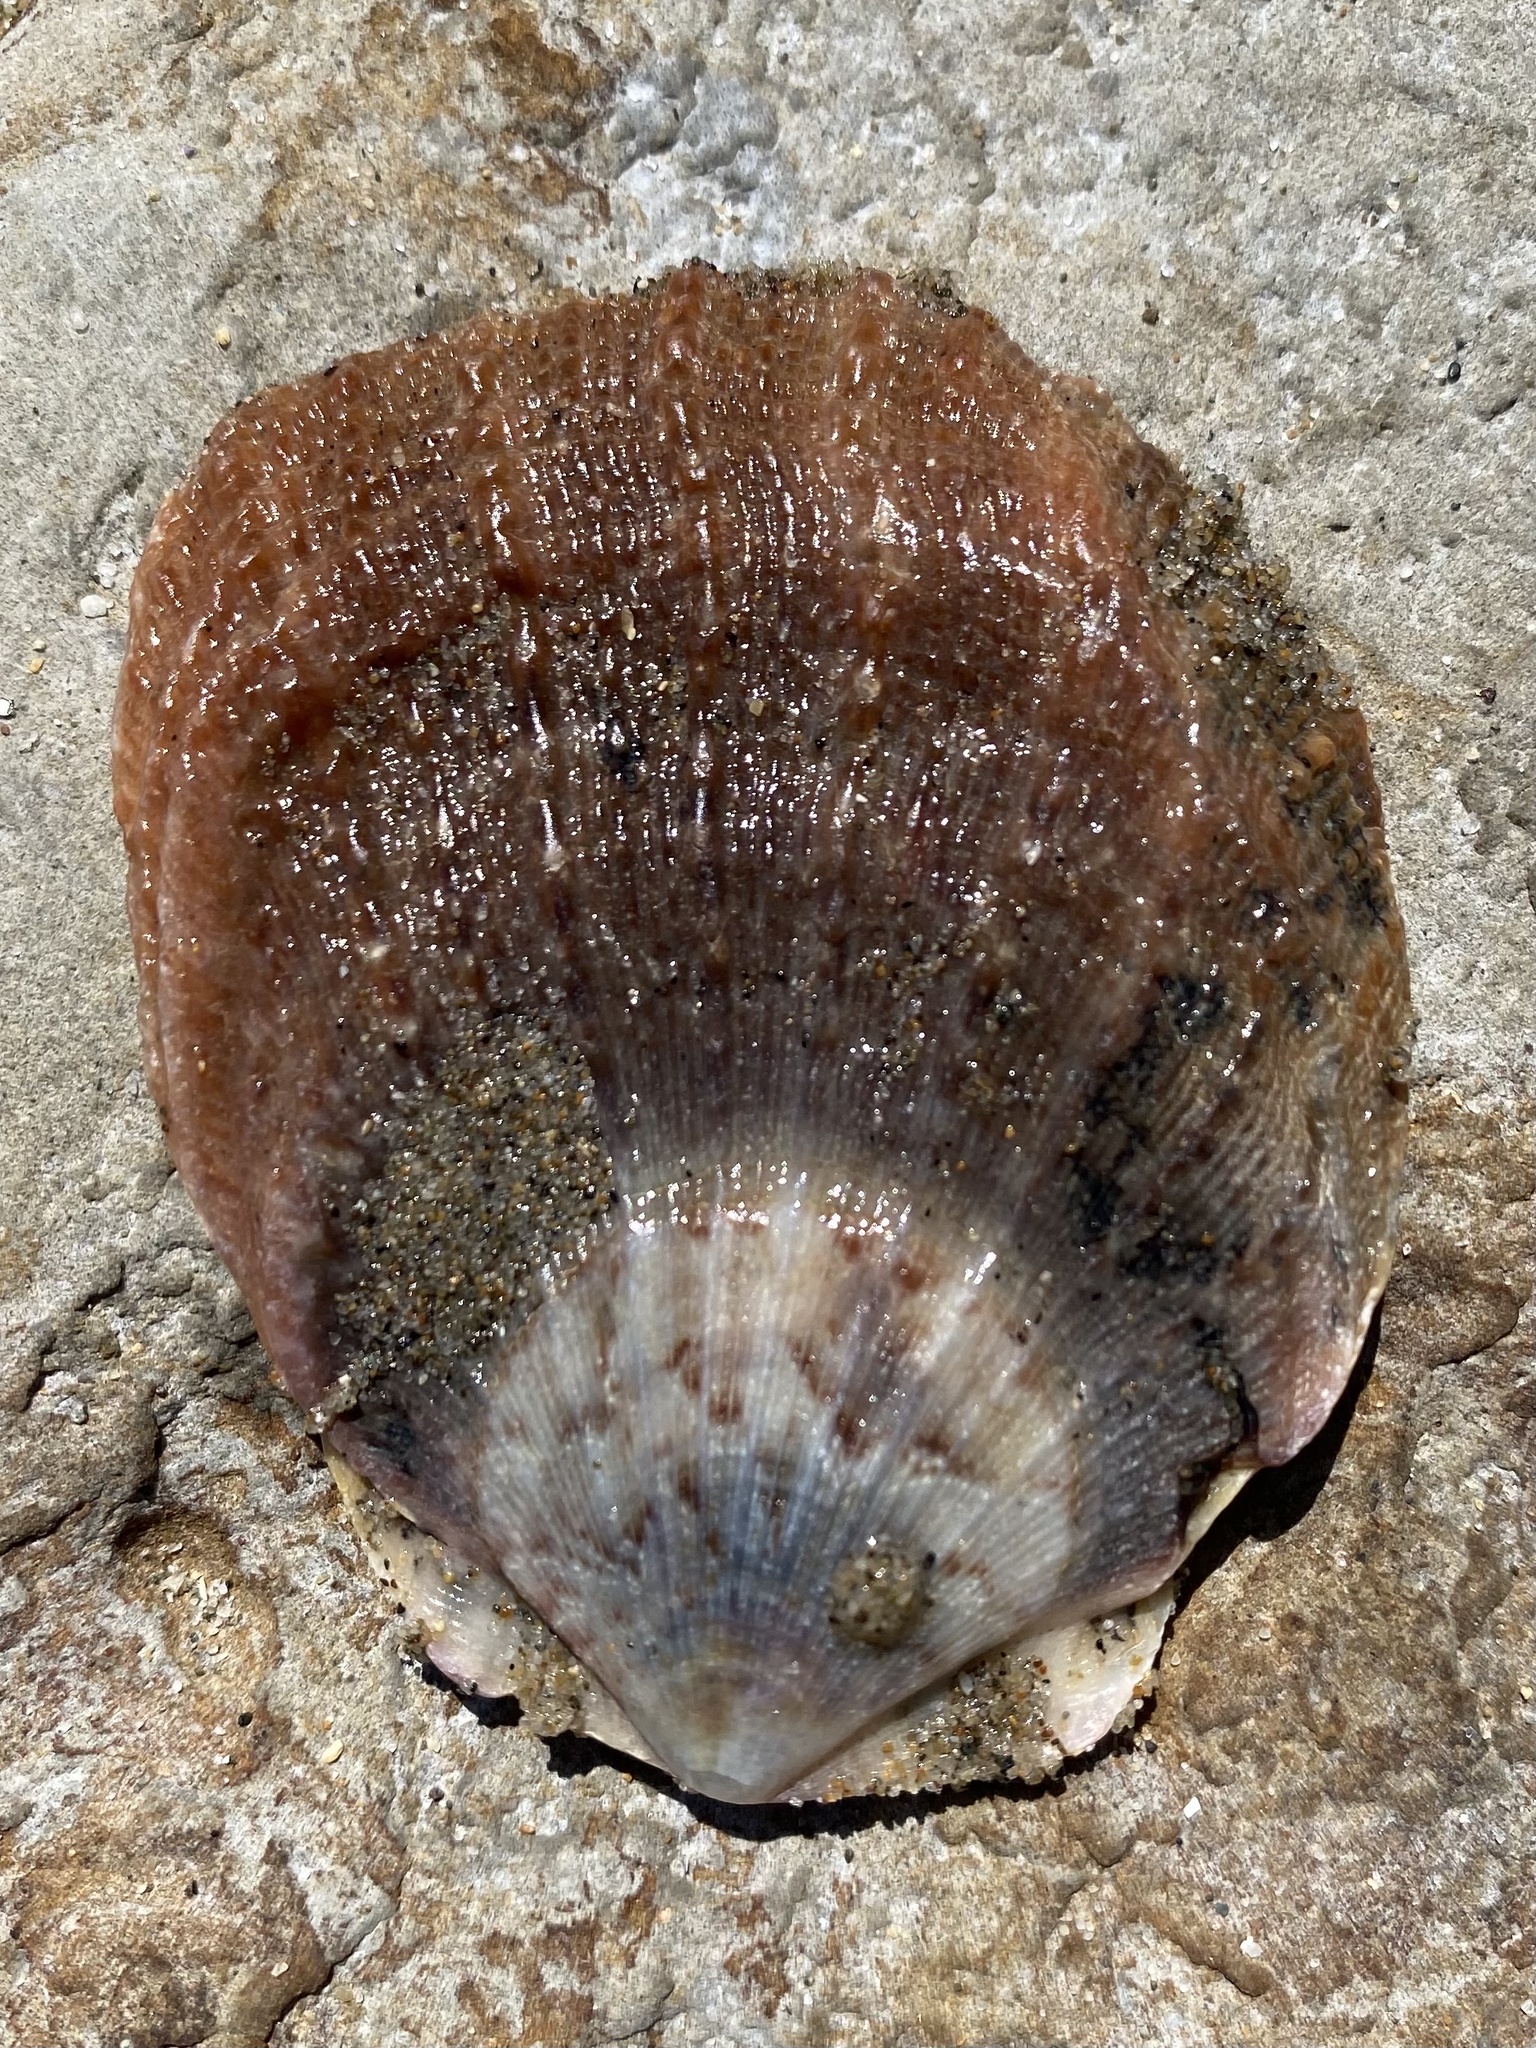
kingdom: Animalia
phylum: Mollusca
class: Bivalvia
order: Pectinida
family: Pectinidae
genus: Crassadoma
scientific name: Crassadoma gigantea
